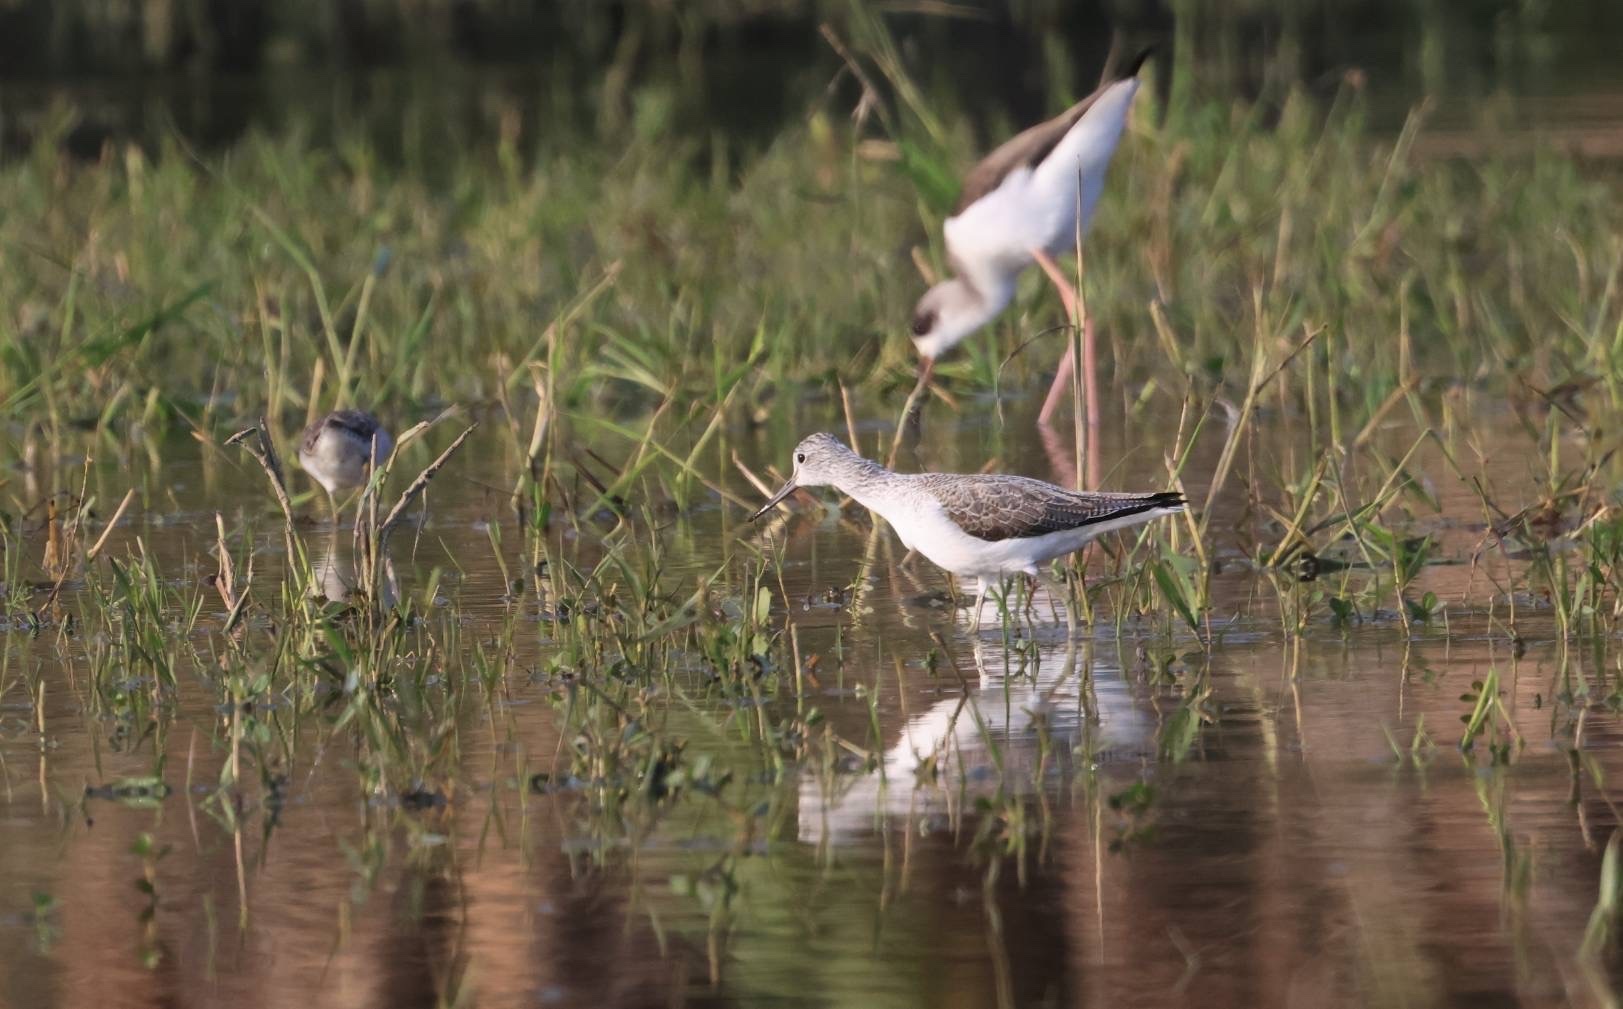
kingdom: Animalia
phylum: Chordata
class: Aves
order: Charadriiformes
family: Scolopacidae
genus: Tringa
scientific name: Tringa nebularia
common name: Common greenshank
